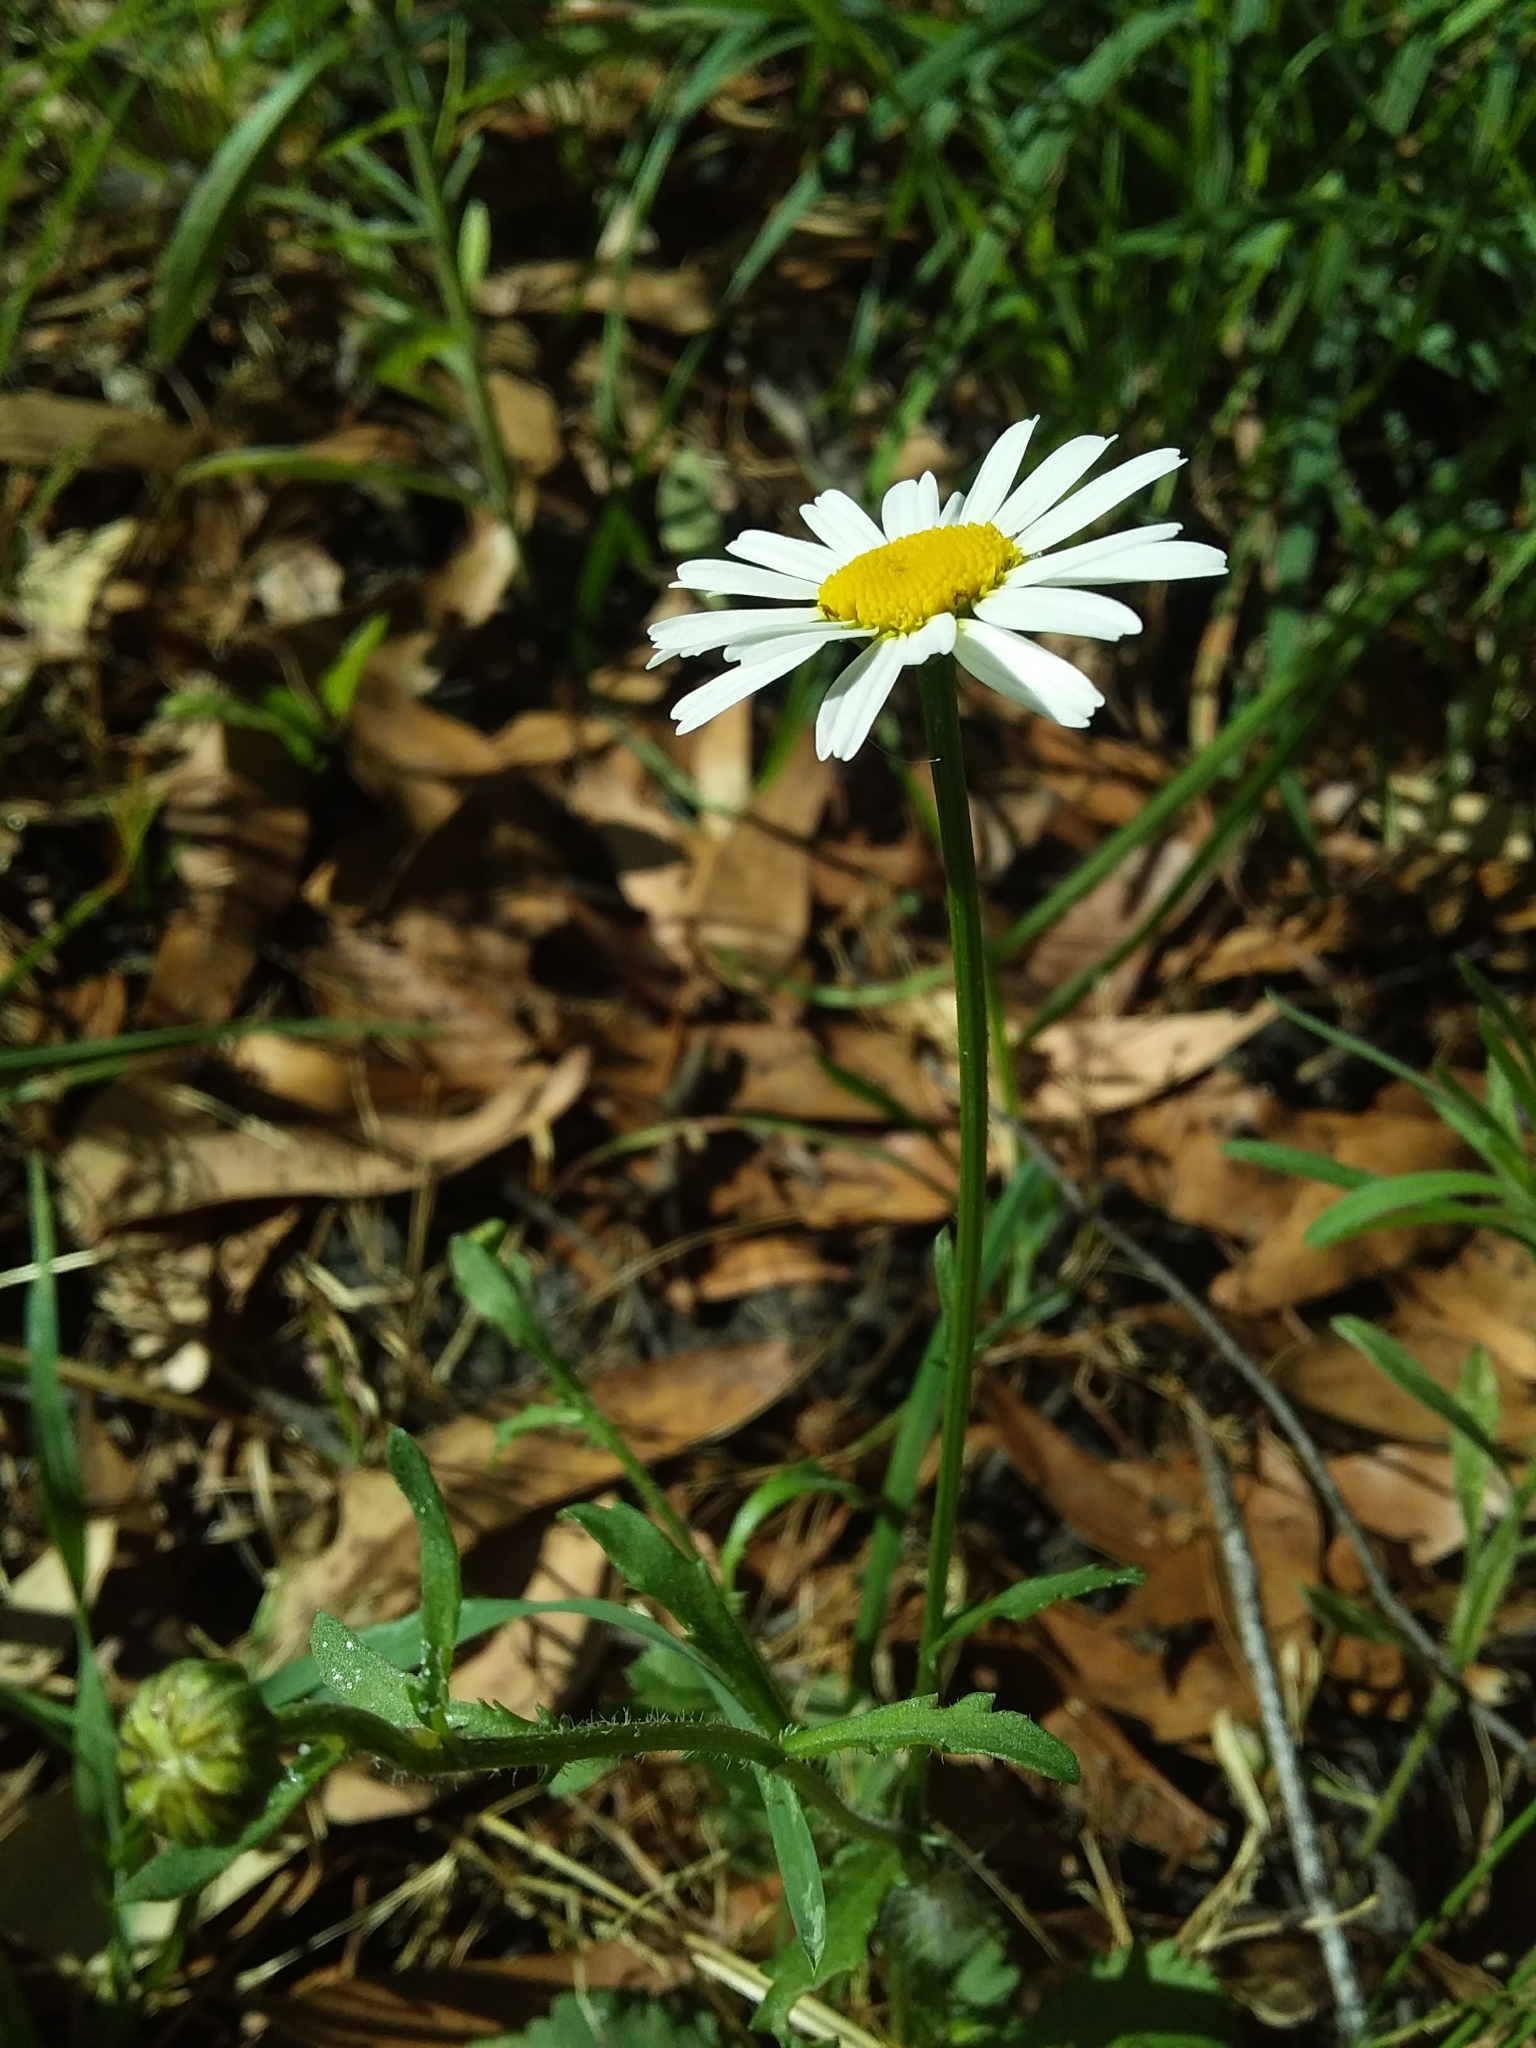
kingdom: Plantae
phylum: Tracheophyta
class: Magnoliopsida
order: Asterales
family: Asteraceae
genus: Leucanthemum
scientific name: Leucanthemum vulgare
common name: Oxeye daisy
